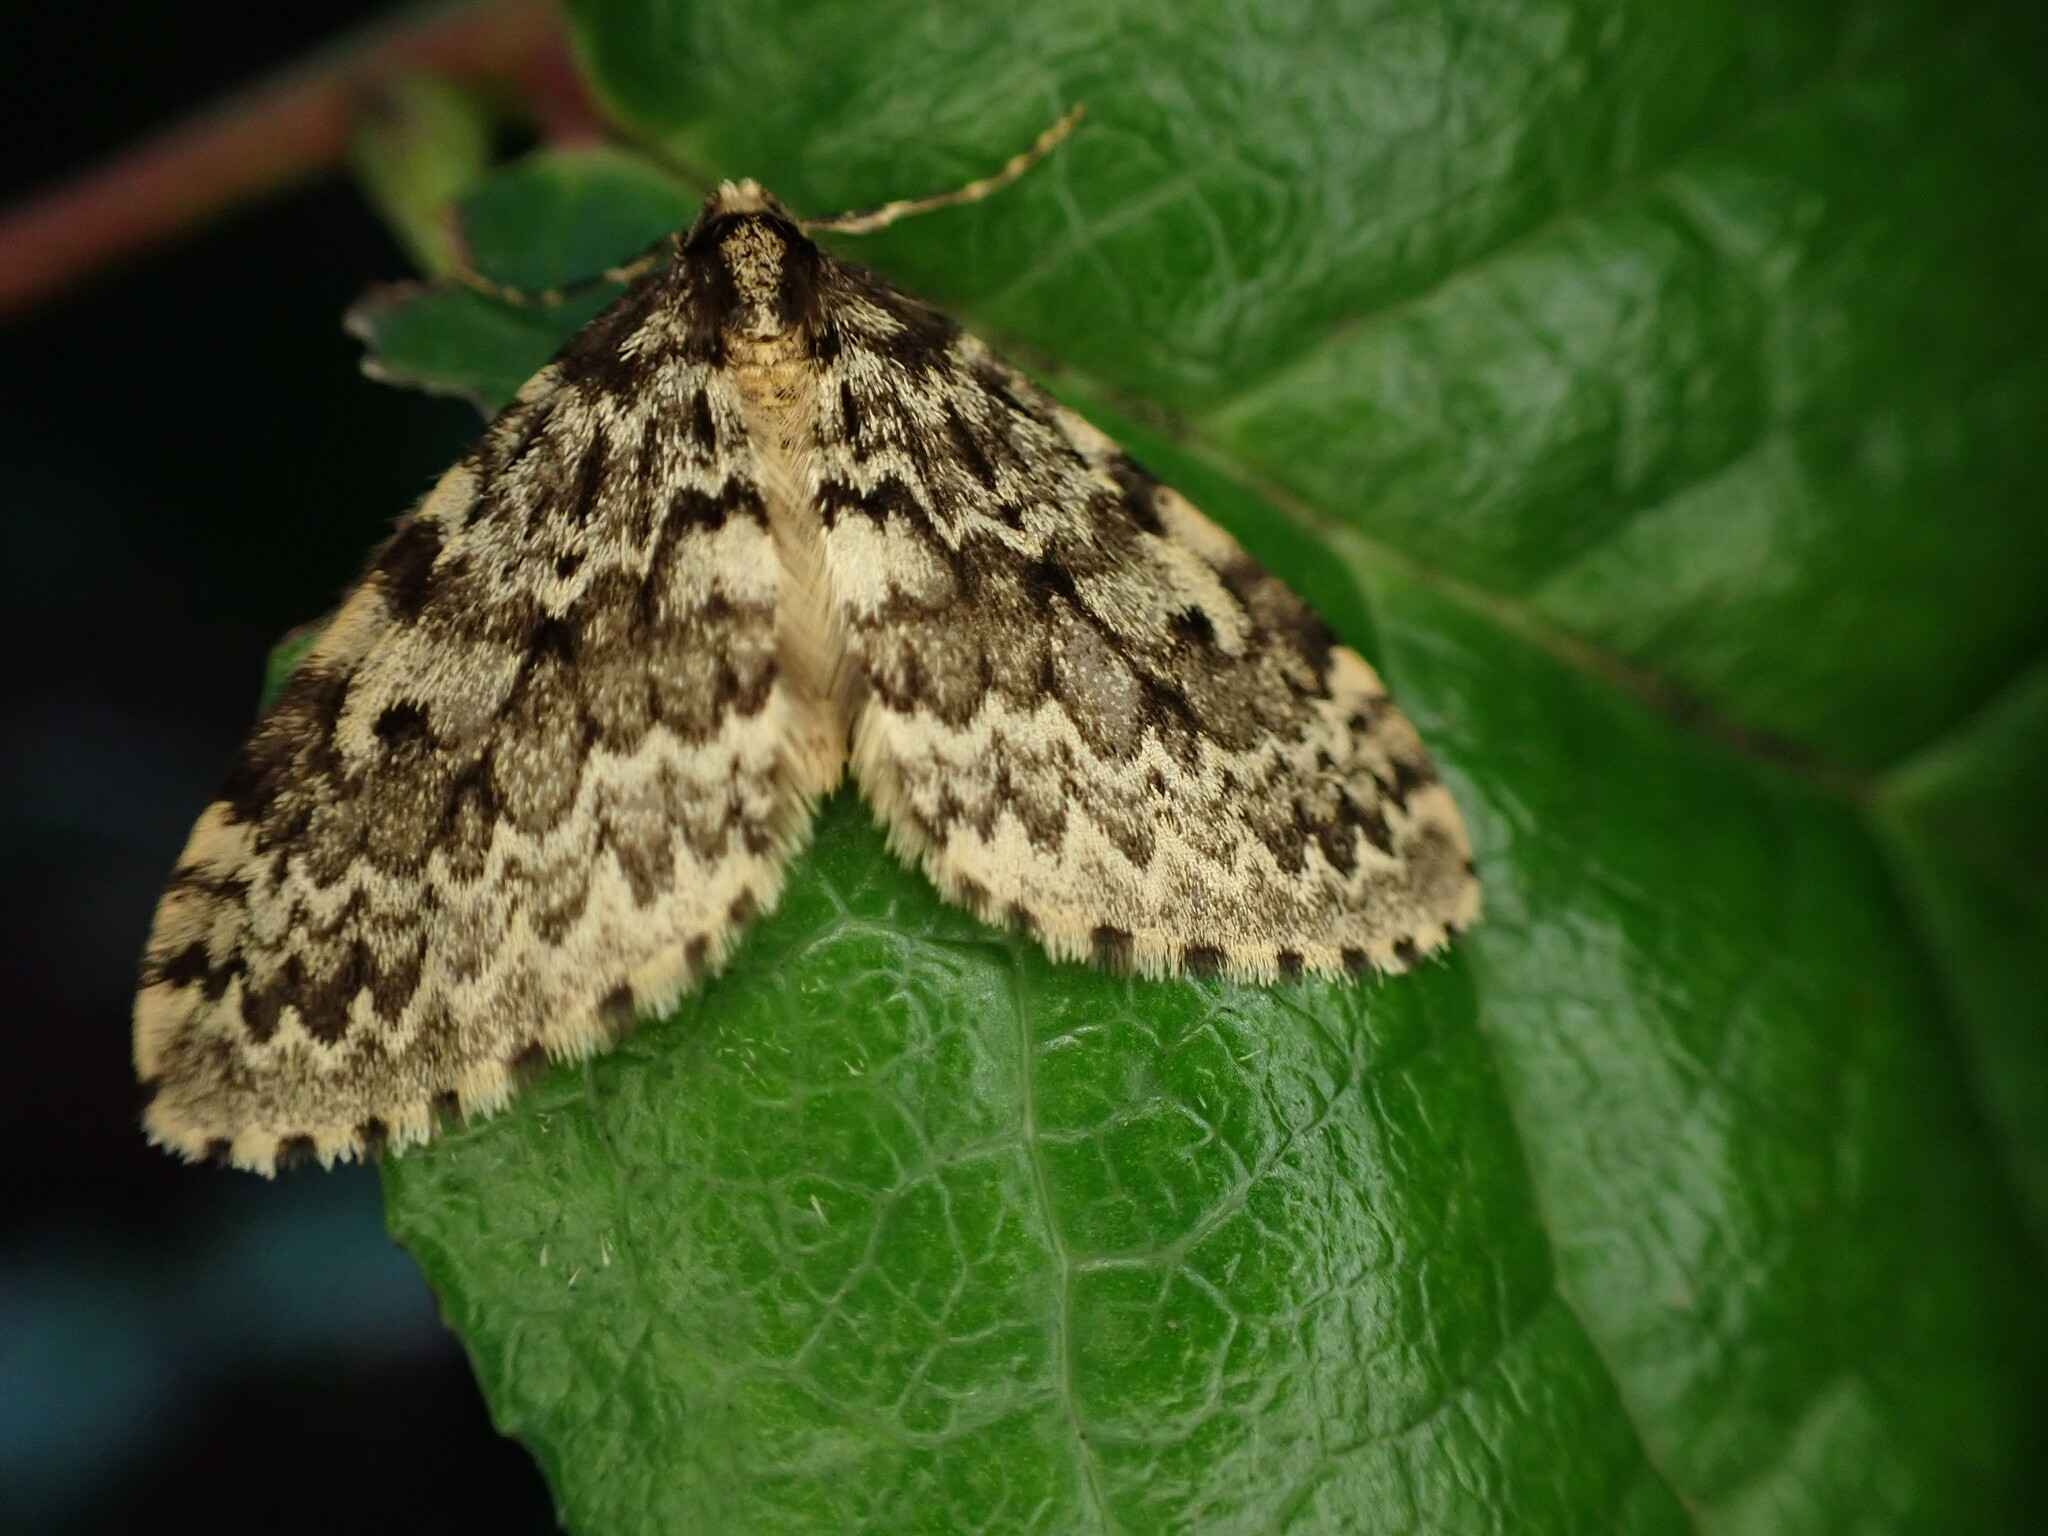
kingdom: Animalia
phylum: Arthropoda
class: Insecta
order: Lepidoptera
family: Geometridae
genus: Malacodea
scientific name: Malacodea pulchraria
